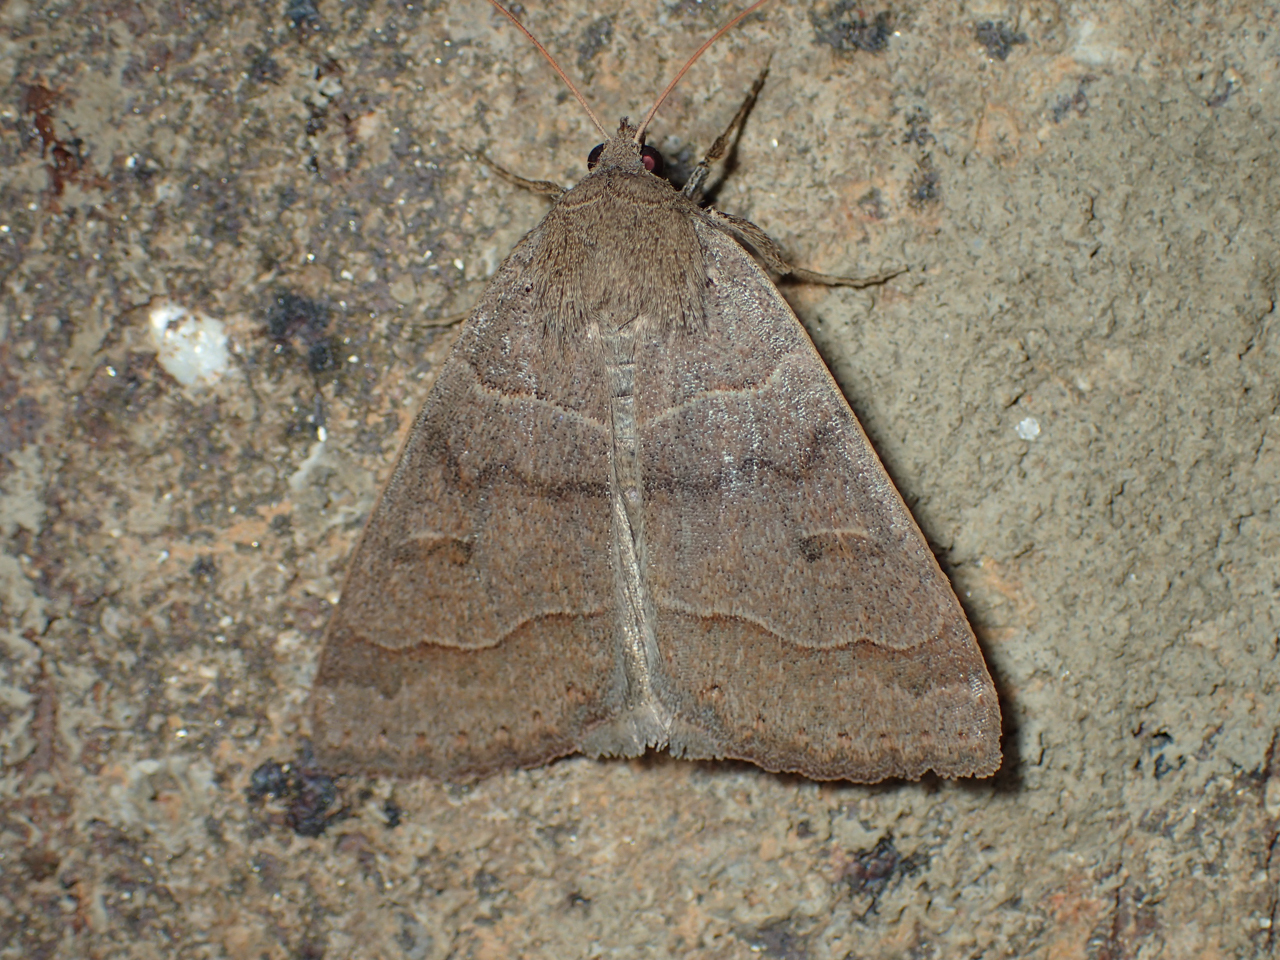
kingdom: Animalia
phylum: Arthropoda
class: Insecta
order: Lepidoptera
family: Erebidae
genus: Phoberia
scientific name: Phoberia atomaris
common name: Common oak moth
